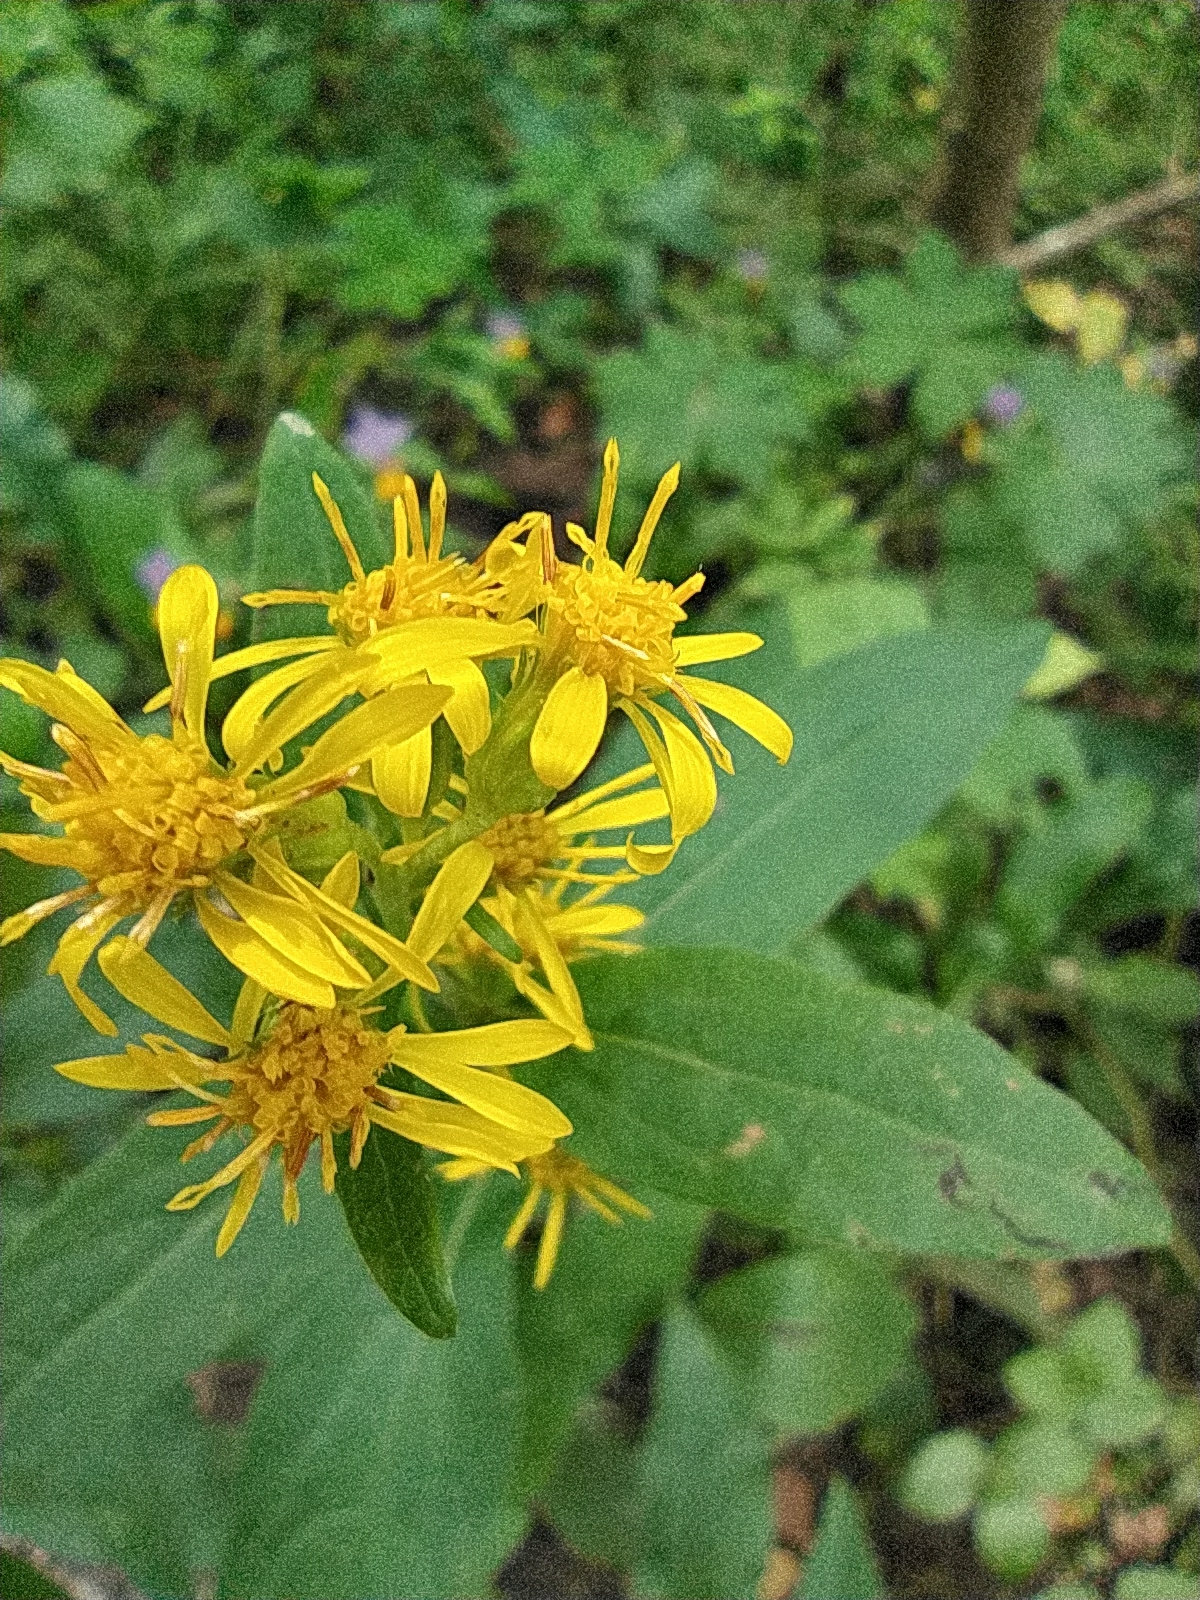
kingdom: Plantae
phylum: Tracheophyta
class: Magnoliopsida
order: Asterales
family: Asteraceae
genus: Solidago
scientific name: Solidago virgaurea
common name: Goldenrod
